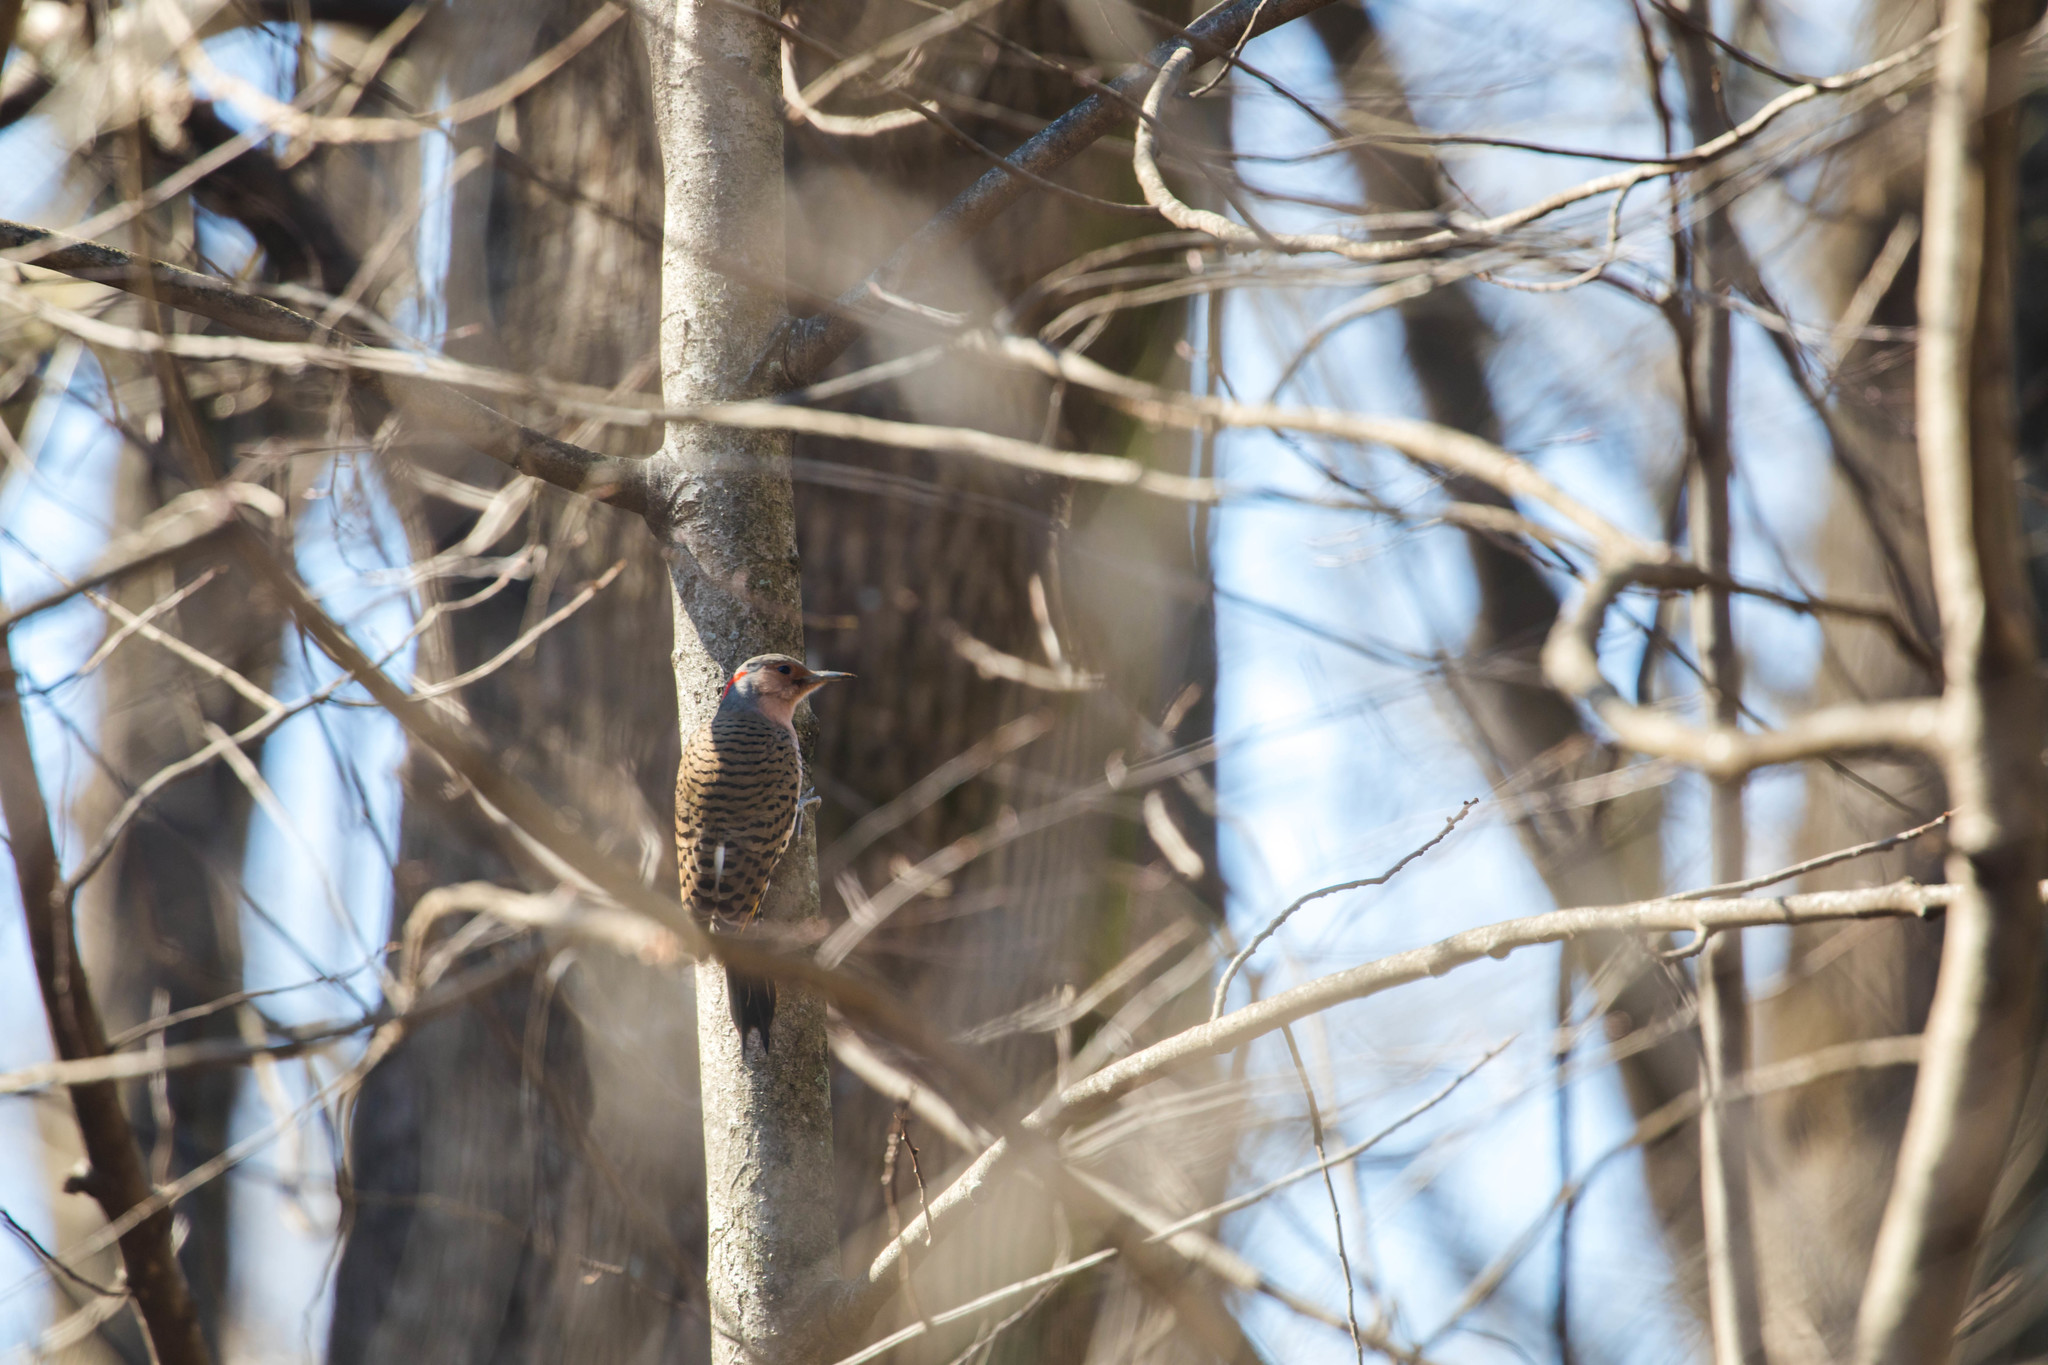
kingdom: Animalia
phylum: Chordata
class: Aves
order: Piciformes
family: Picidae
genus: Colaptes
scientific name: Colaptes auratus
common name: Northern flicker
